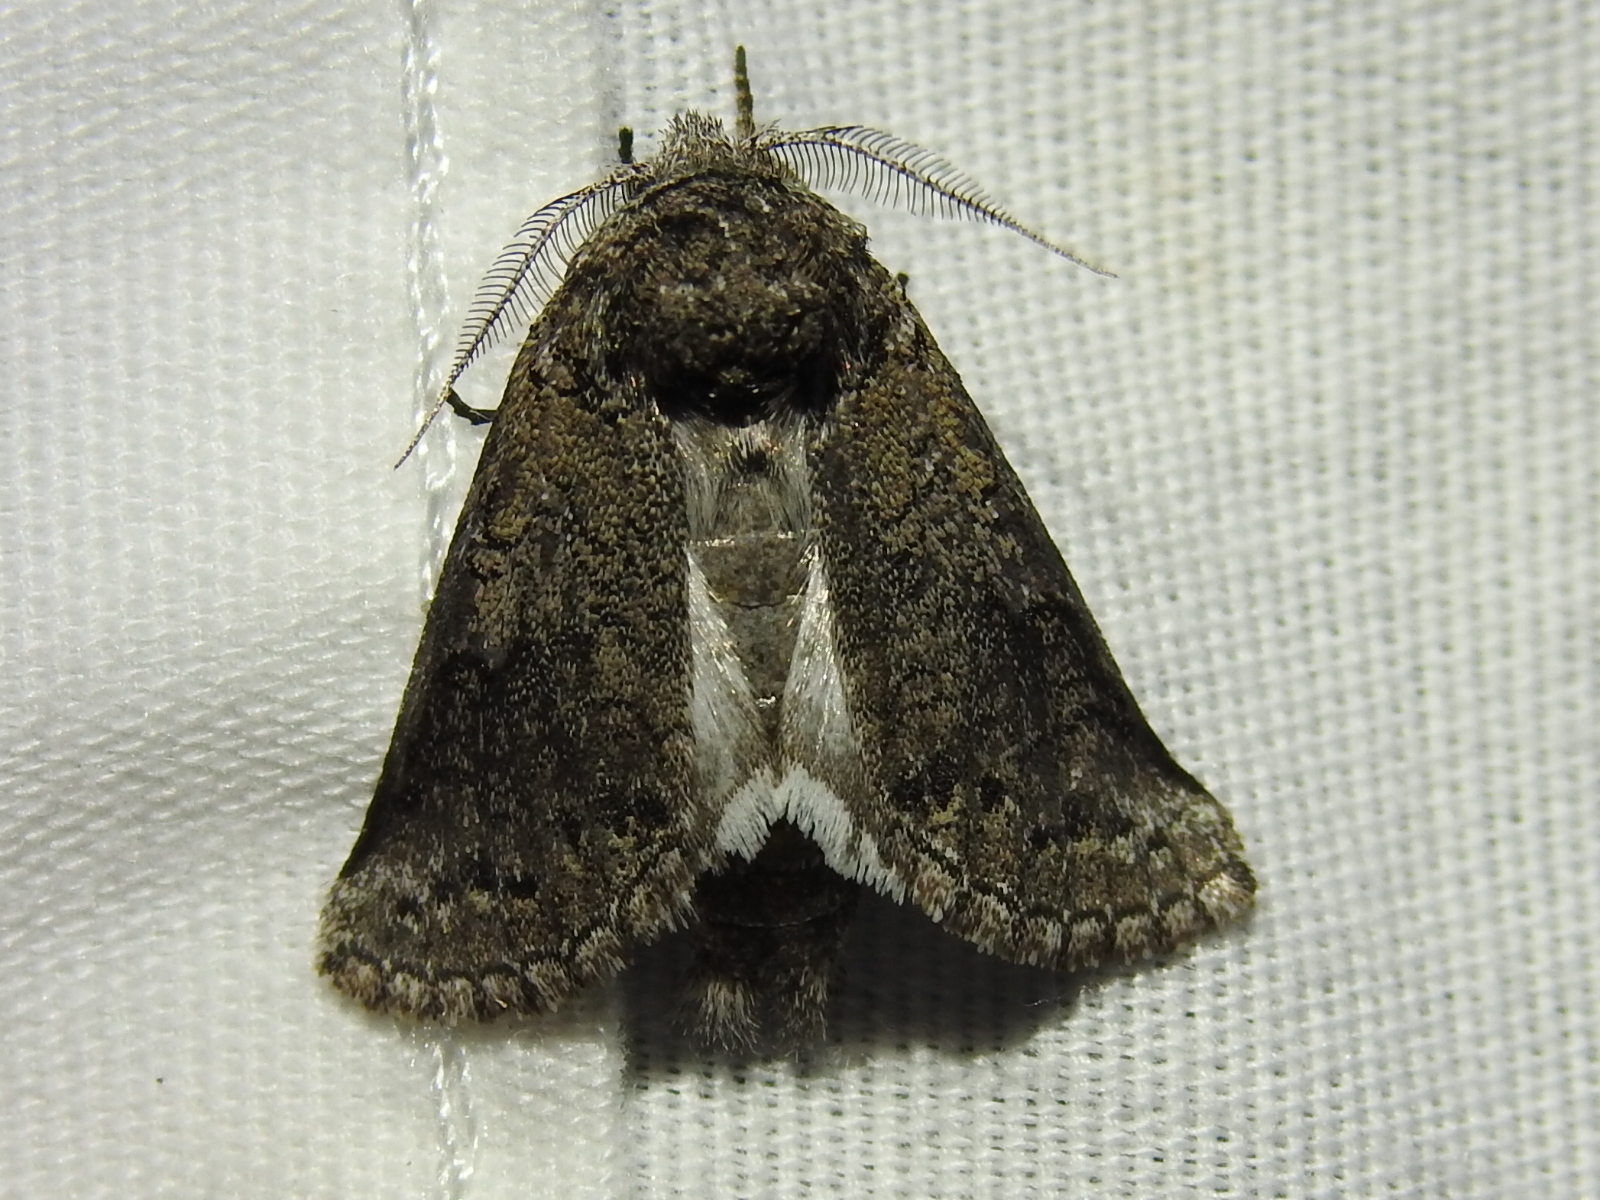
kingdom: Animalia
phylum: Arthropoda
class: Insecta
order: Lepidoptera
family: Notodontidae
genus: Litodonta
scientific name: Litodonta contrasta
